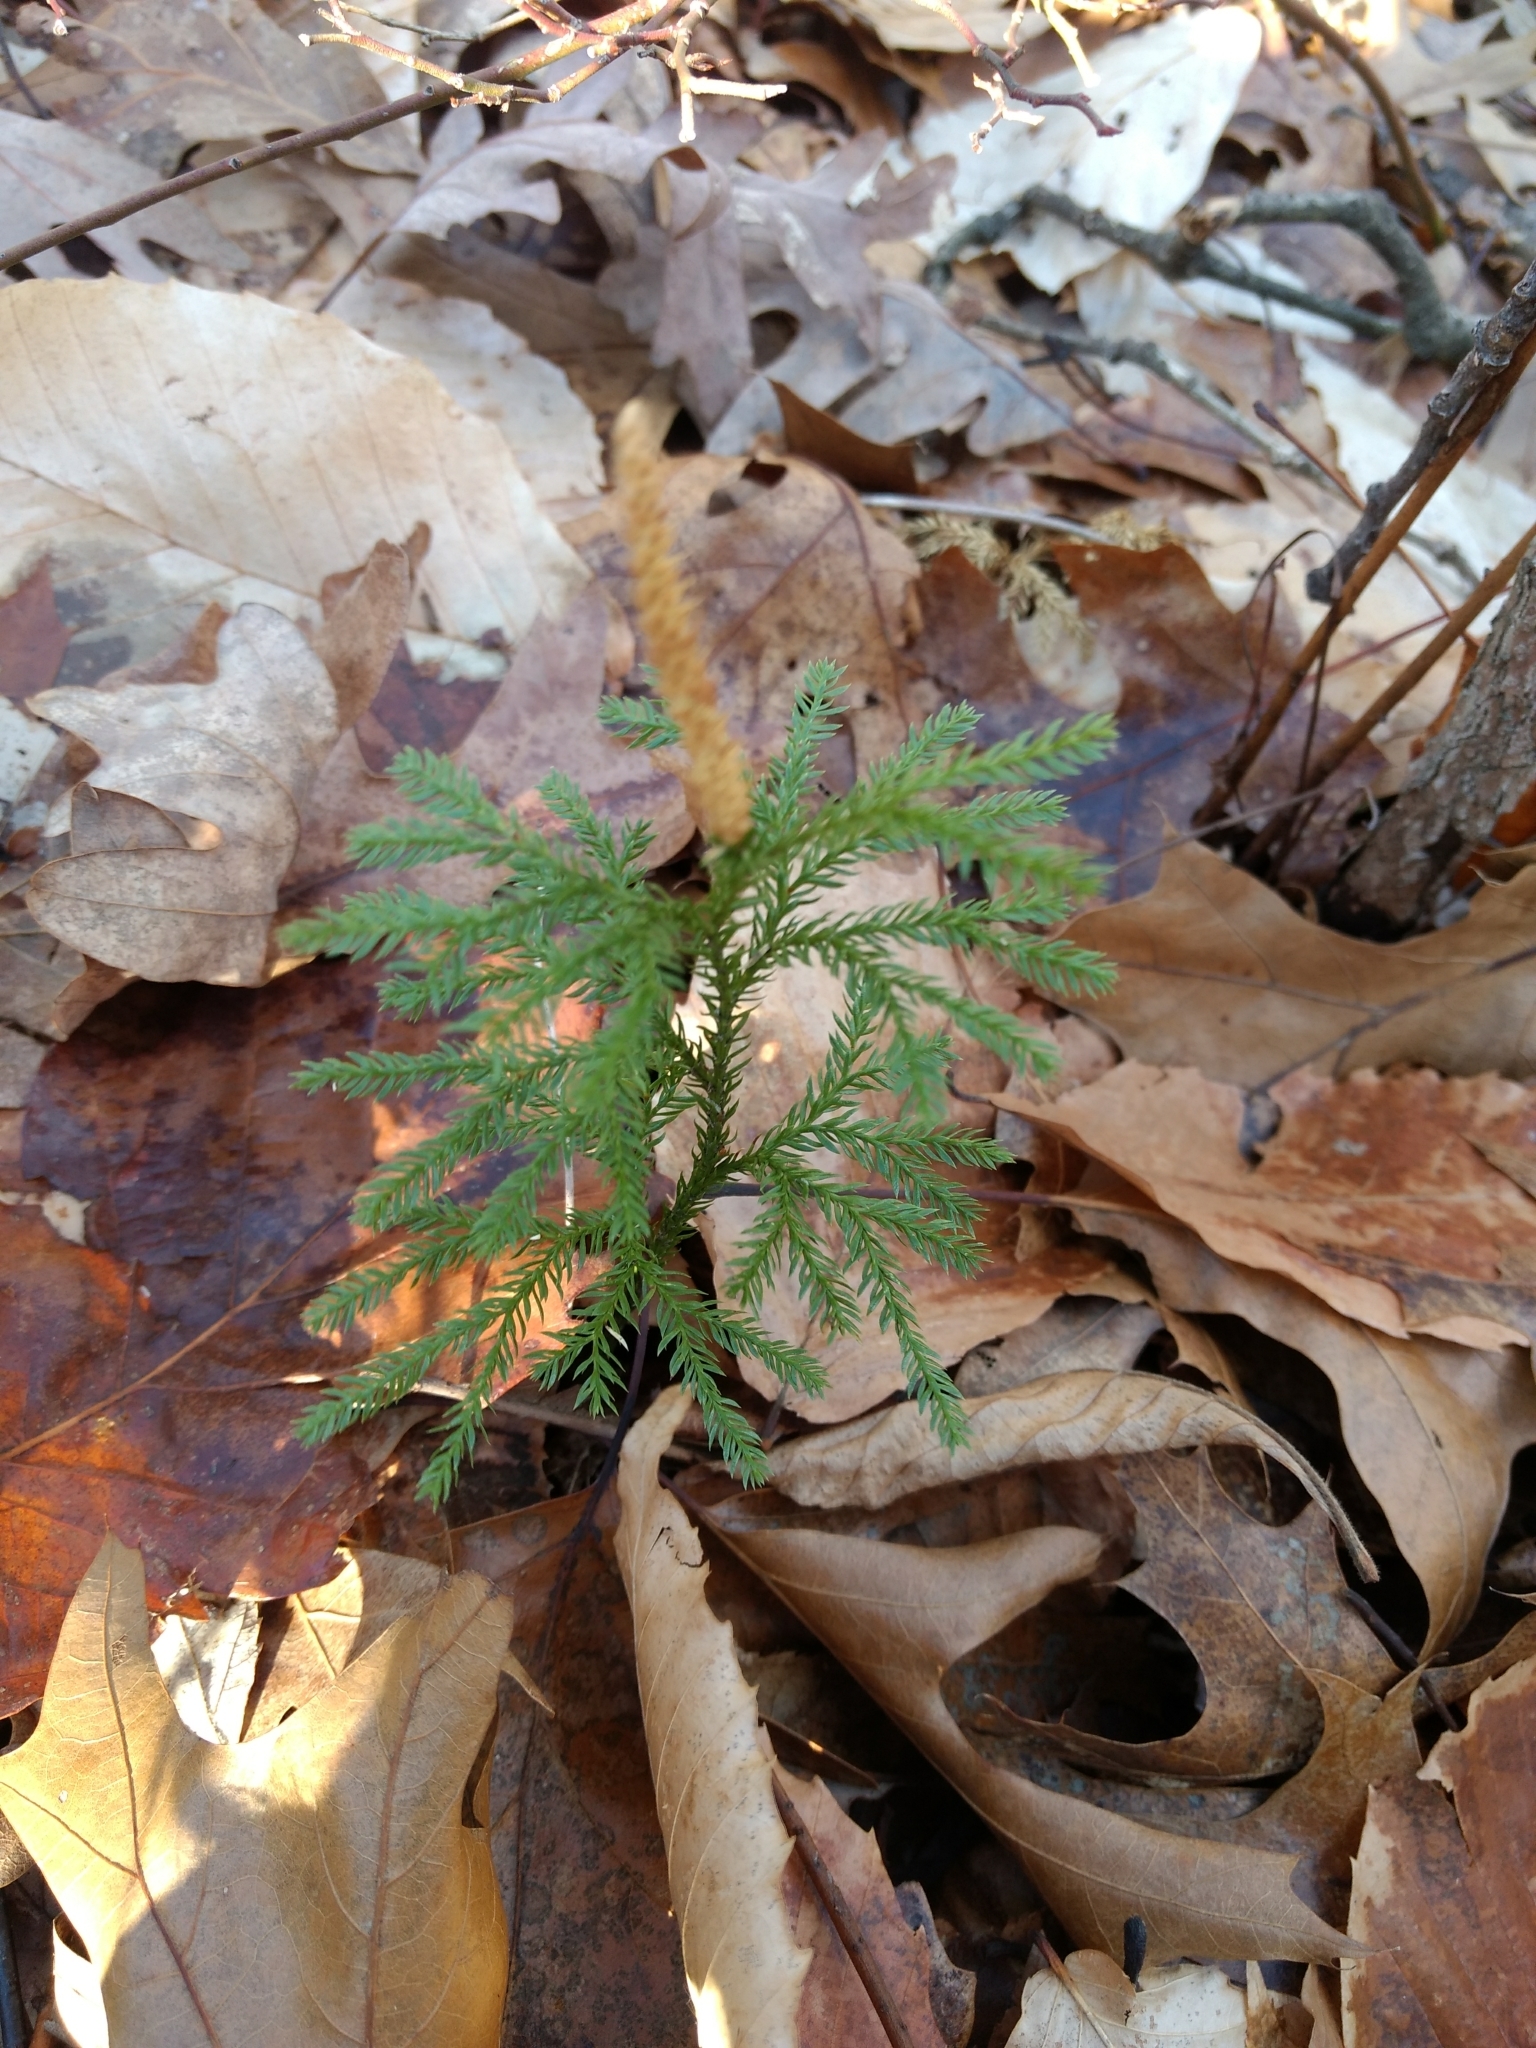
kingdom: Plantae
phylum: Tracheophyta
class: Lycopodiopsida
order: Lycopodiales
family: Lycopodiaceae
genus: Dendrolycopodium
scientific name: Dendrolycopodium obscurum
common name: Common ground-pine
